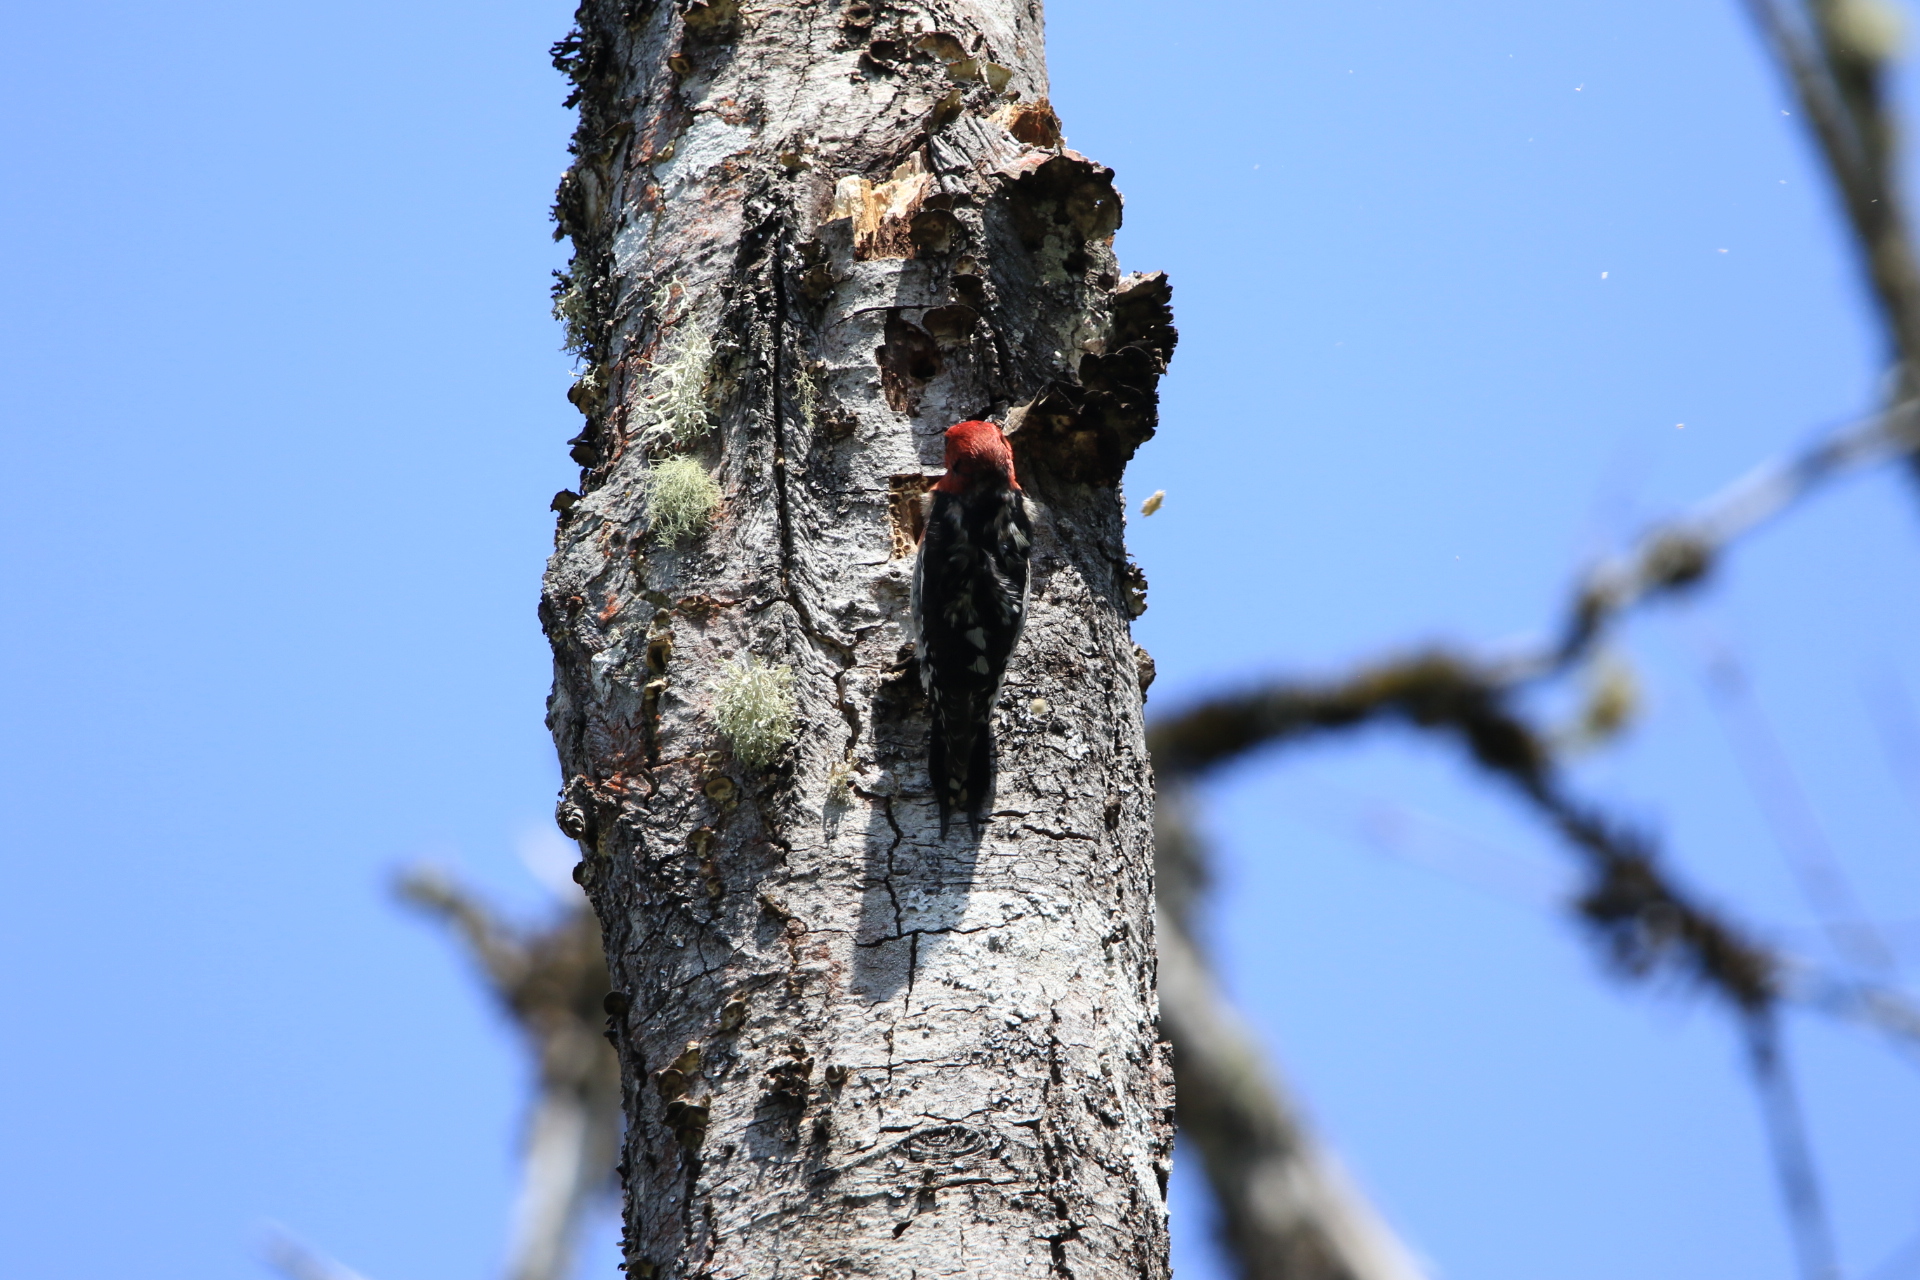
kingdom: Animalia
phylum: Chordata
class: Aves
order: Piciformes
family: Picidae
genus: Sphyrapicus
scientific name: Sphyrapicus ruber
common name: Red-breasted sapsucker
